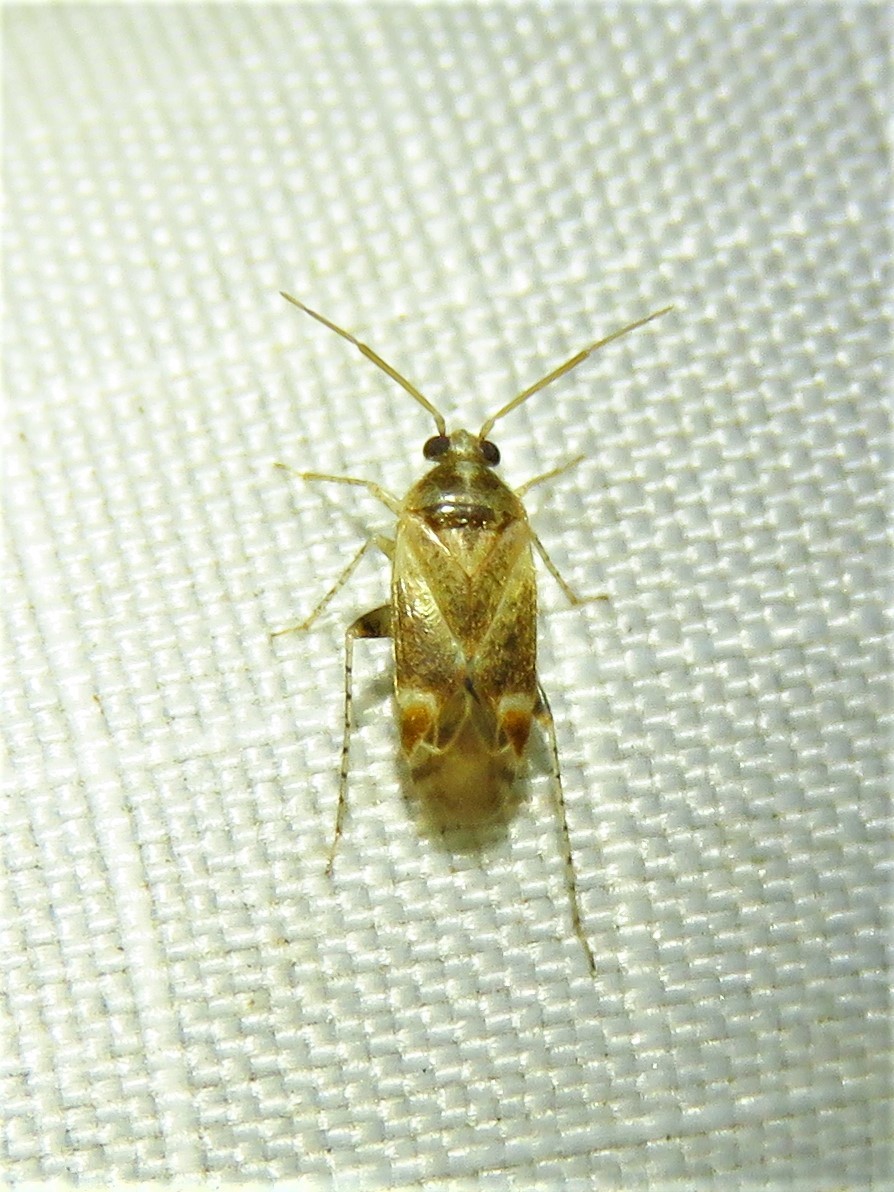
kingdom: Animalia
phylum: Arthropoda
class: Insecta
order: Hemiptera
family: Miridae
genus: Hamatophylus
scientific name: Hamatophylus guttulosus
